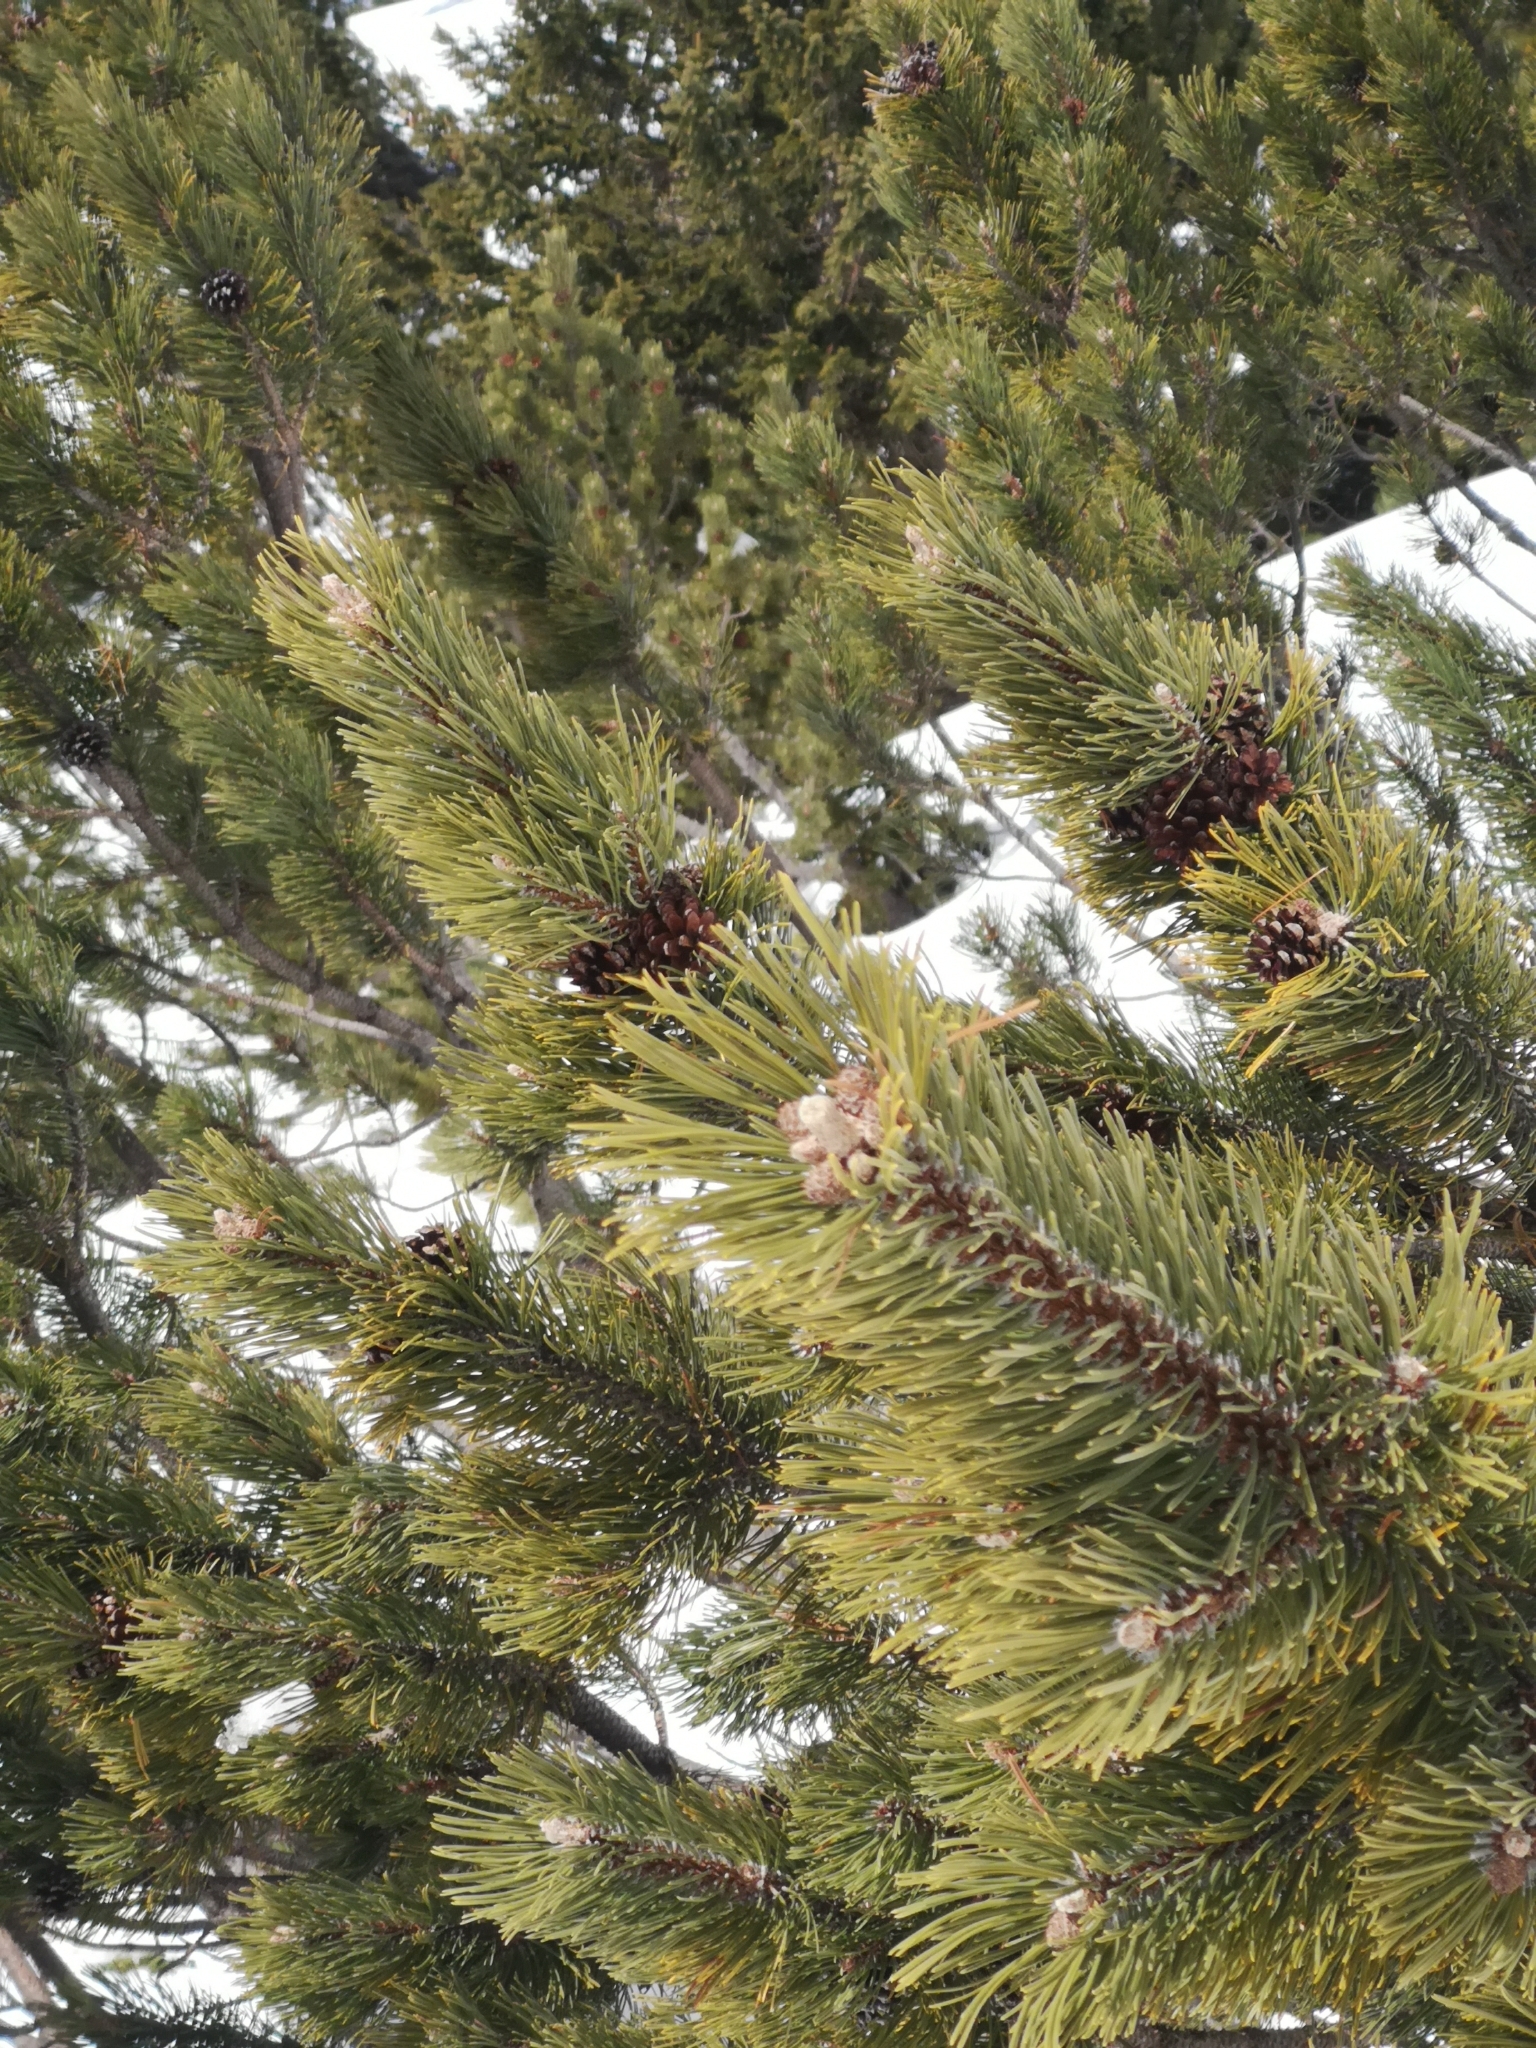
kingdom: Plantae
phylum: Tracheophyta
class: Pinopsida
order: Pinales
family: Pinaceae
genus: Pinus
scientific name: Pinus mugo
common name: Mugo pine
